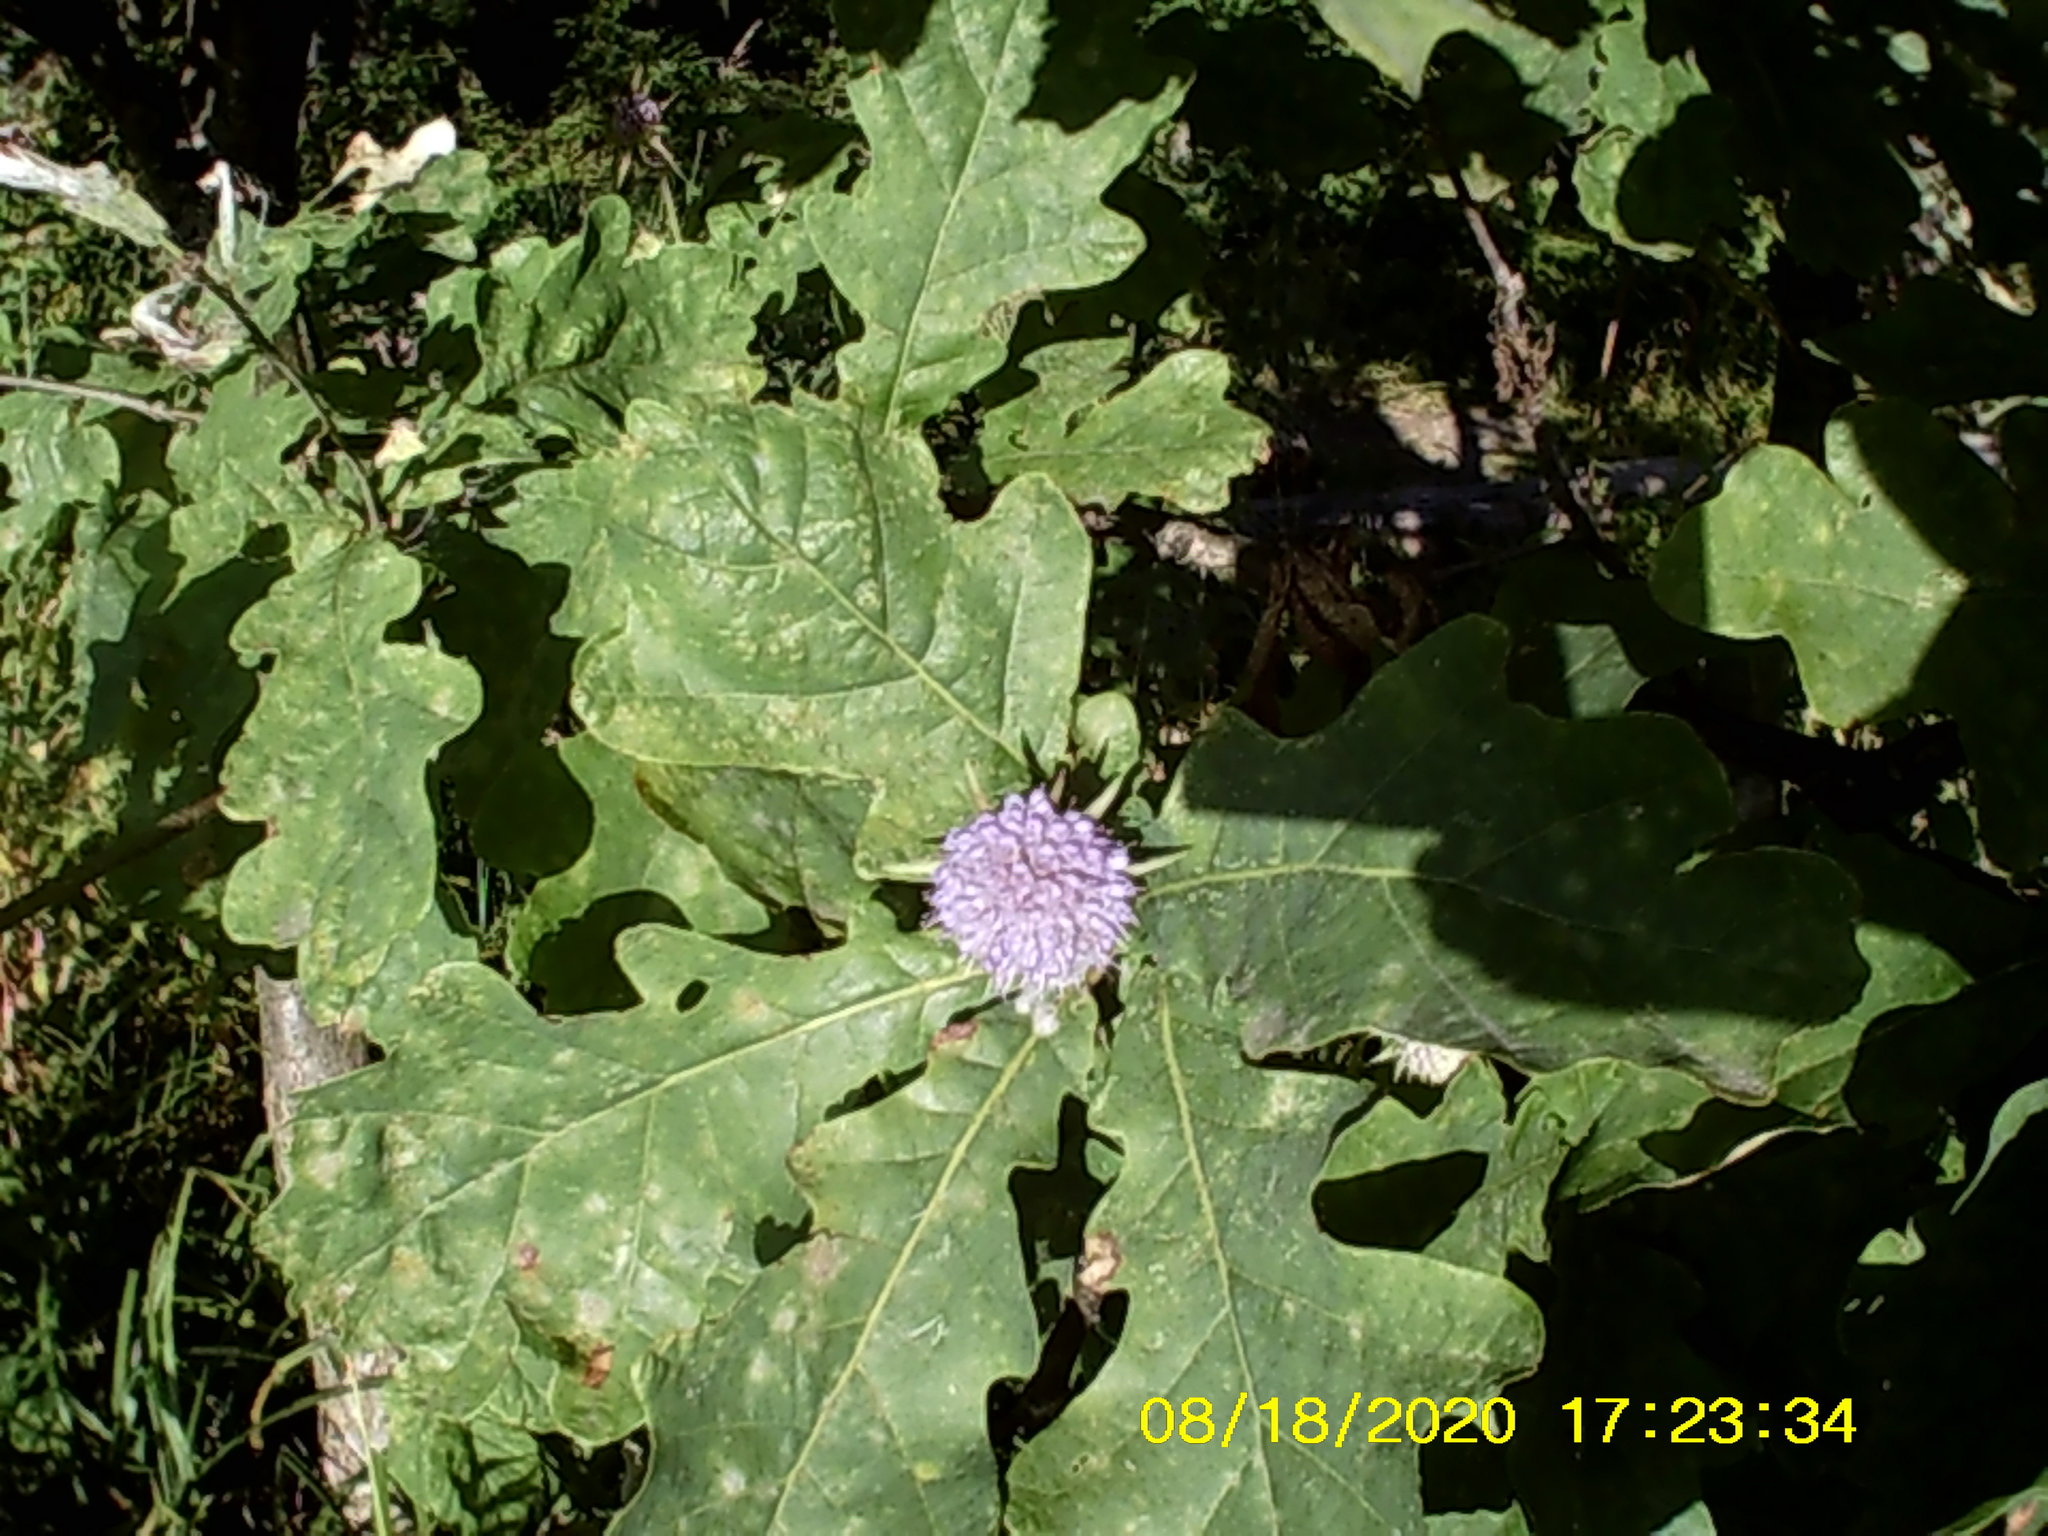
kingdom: Plantae
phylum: Tracheophyta
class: Magnoliopsida
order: Dipsacales
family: Caprifoliaceae
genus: Succisa
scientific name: Succisa pratensis
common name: Devil's-bit
